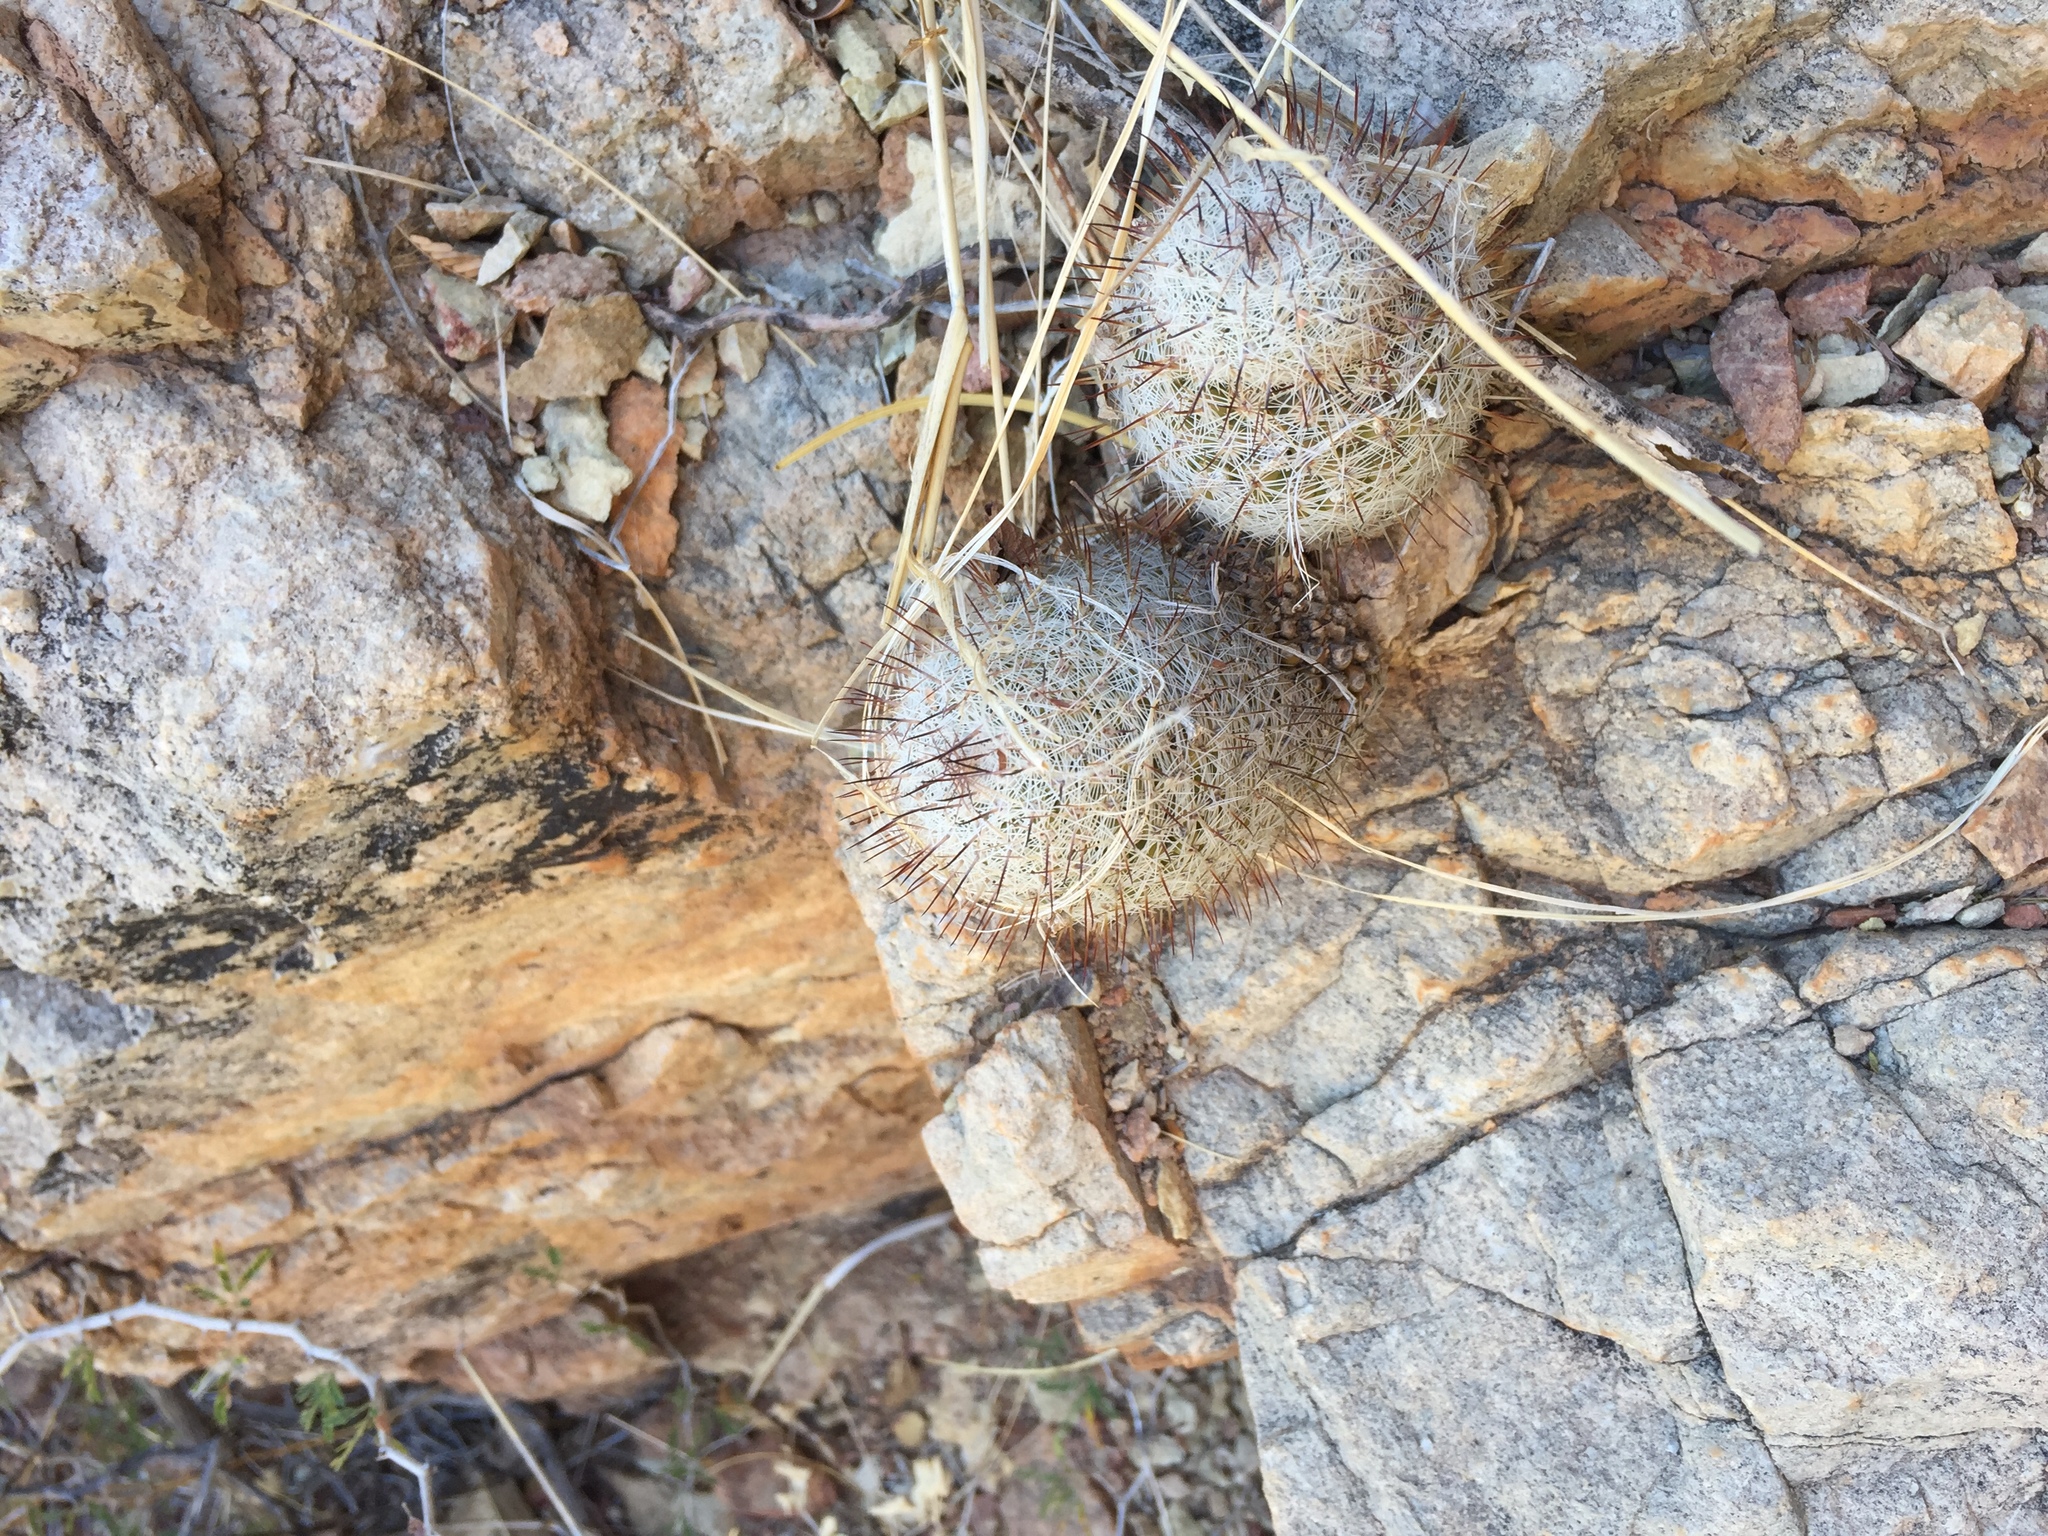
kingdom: Plantae
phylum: Tracheophyta
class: Magnoliopsida
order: Caryophyllales
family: Cactaceae
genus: Cochemiea
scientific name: Cochemiea sheldonii
